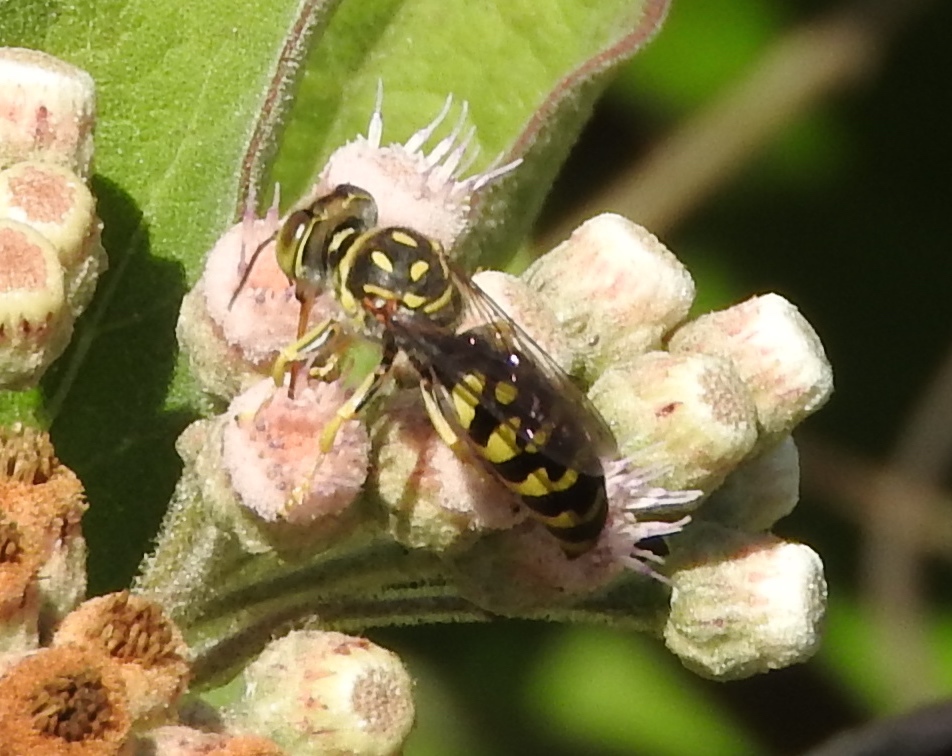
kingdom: Animalia
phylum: Arthropoda
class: Insecta
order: Hymenoptera
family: Crabronidae
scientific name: Crabronidae
